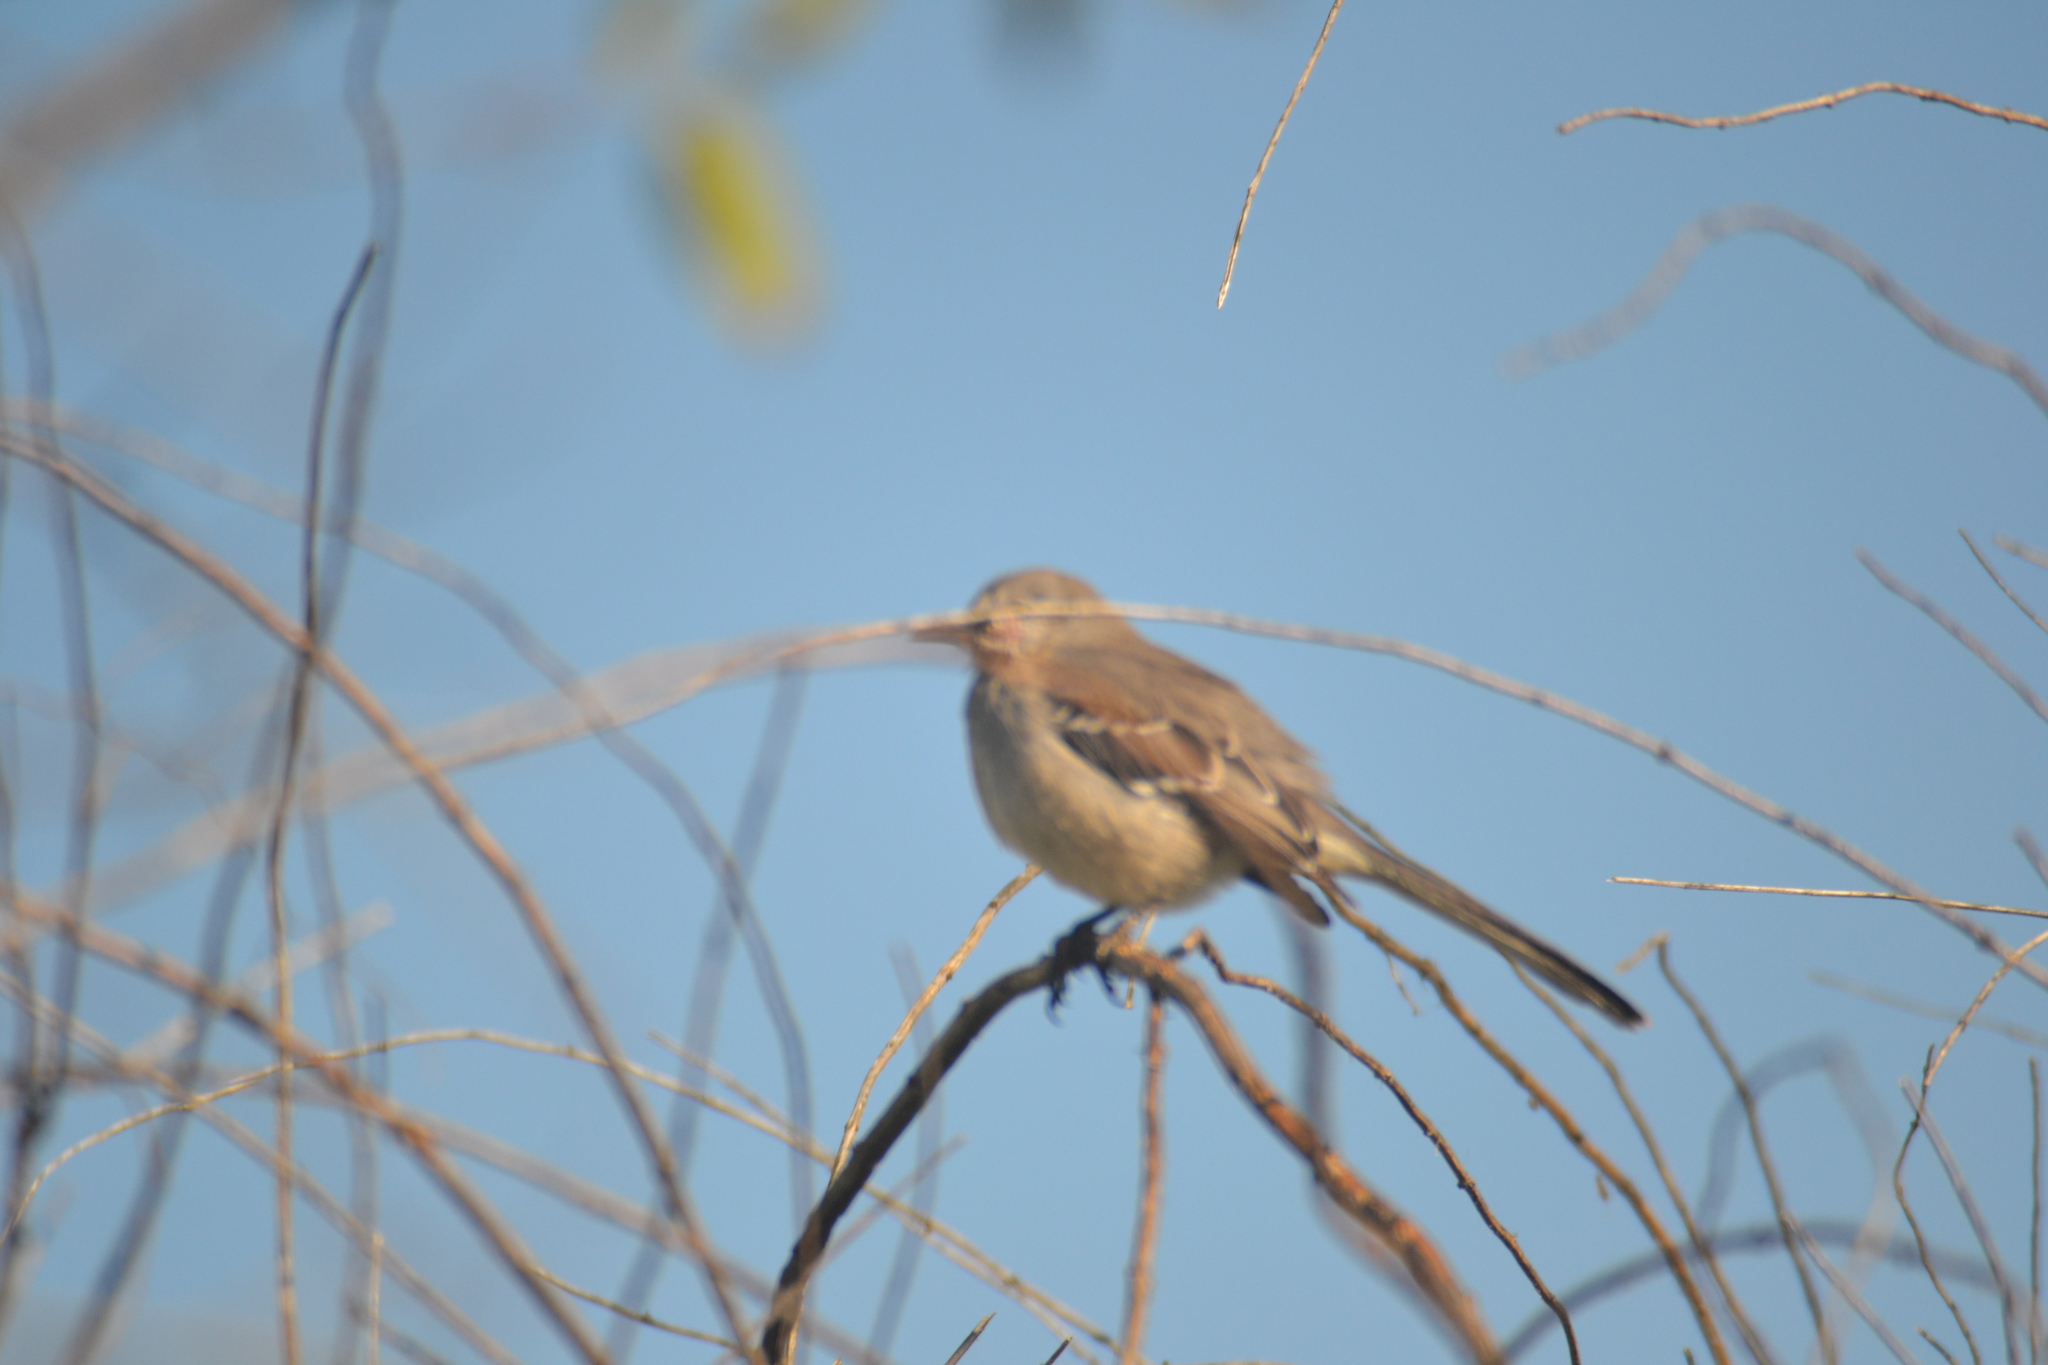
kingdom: Animalia
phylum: Chordata
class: Aves
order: Passeriformes
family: Mimidae
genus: Mimus
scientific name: Mimus polyglottos
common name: Northern mockingbird
